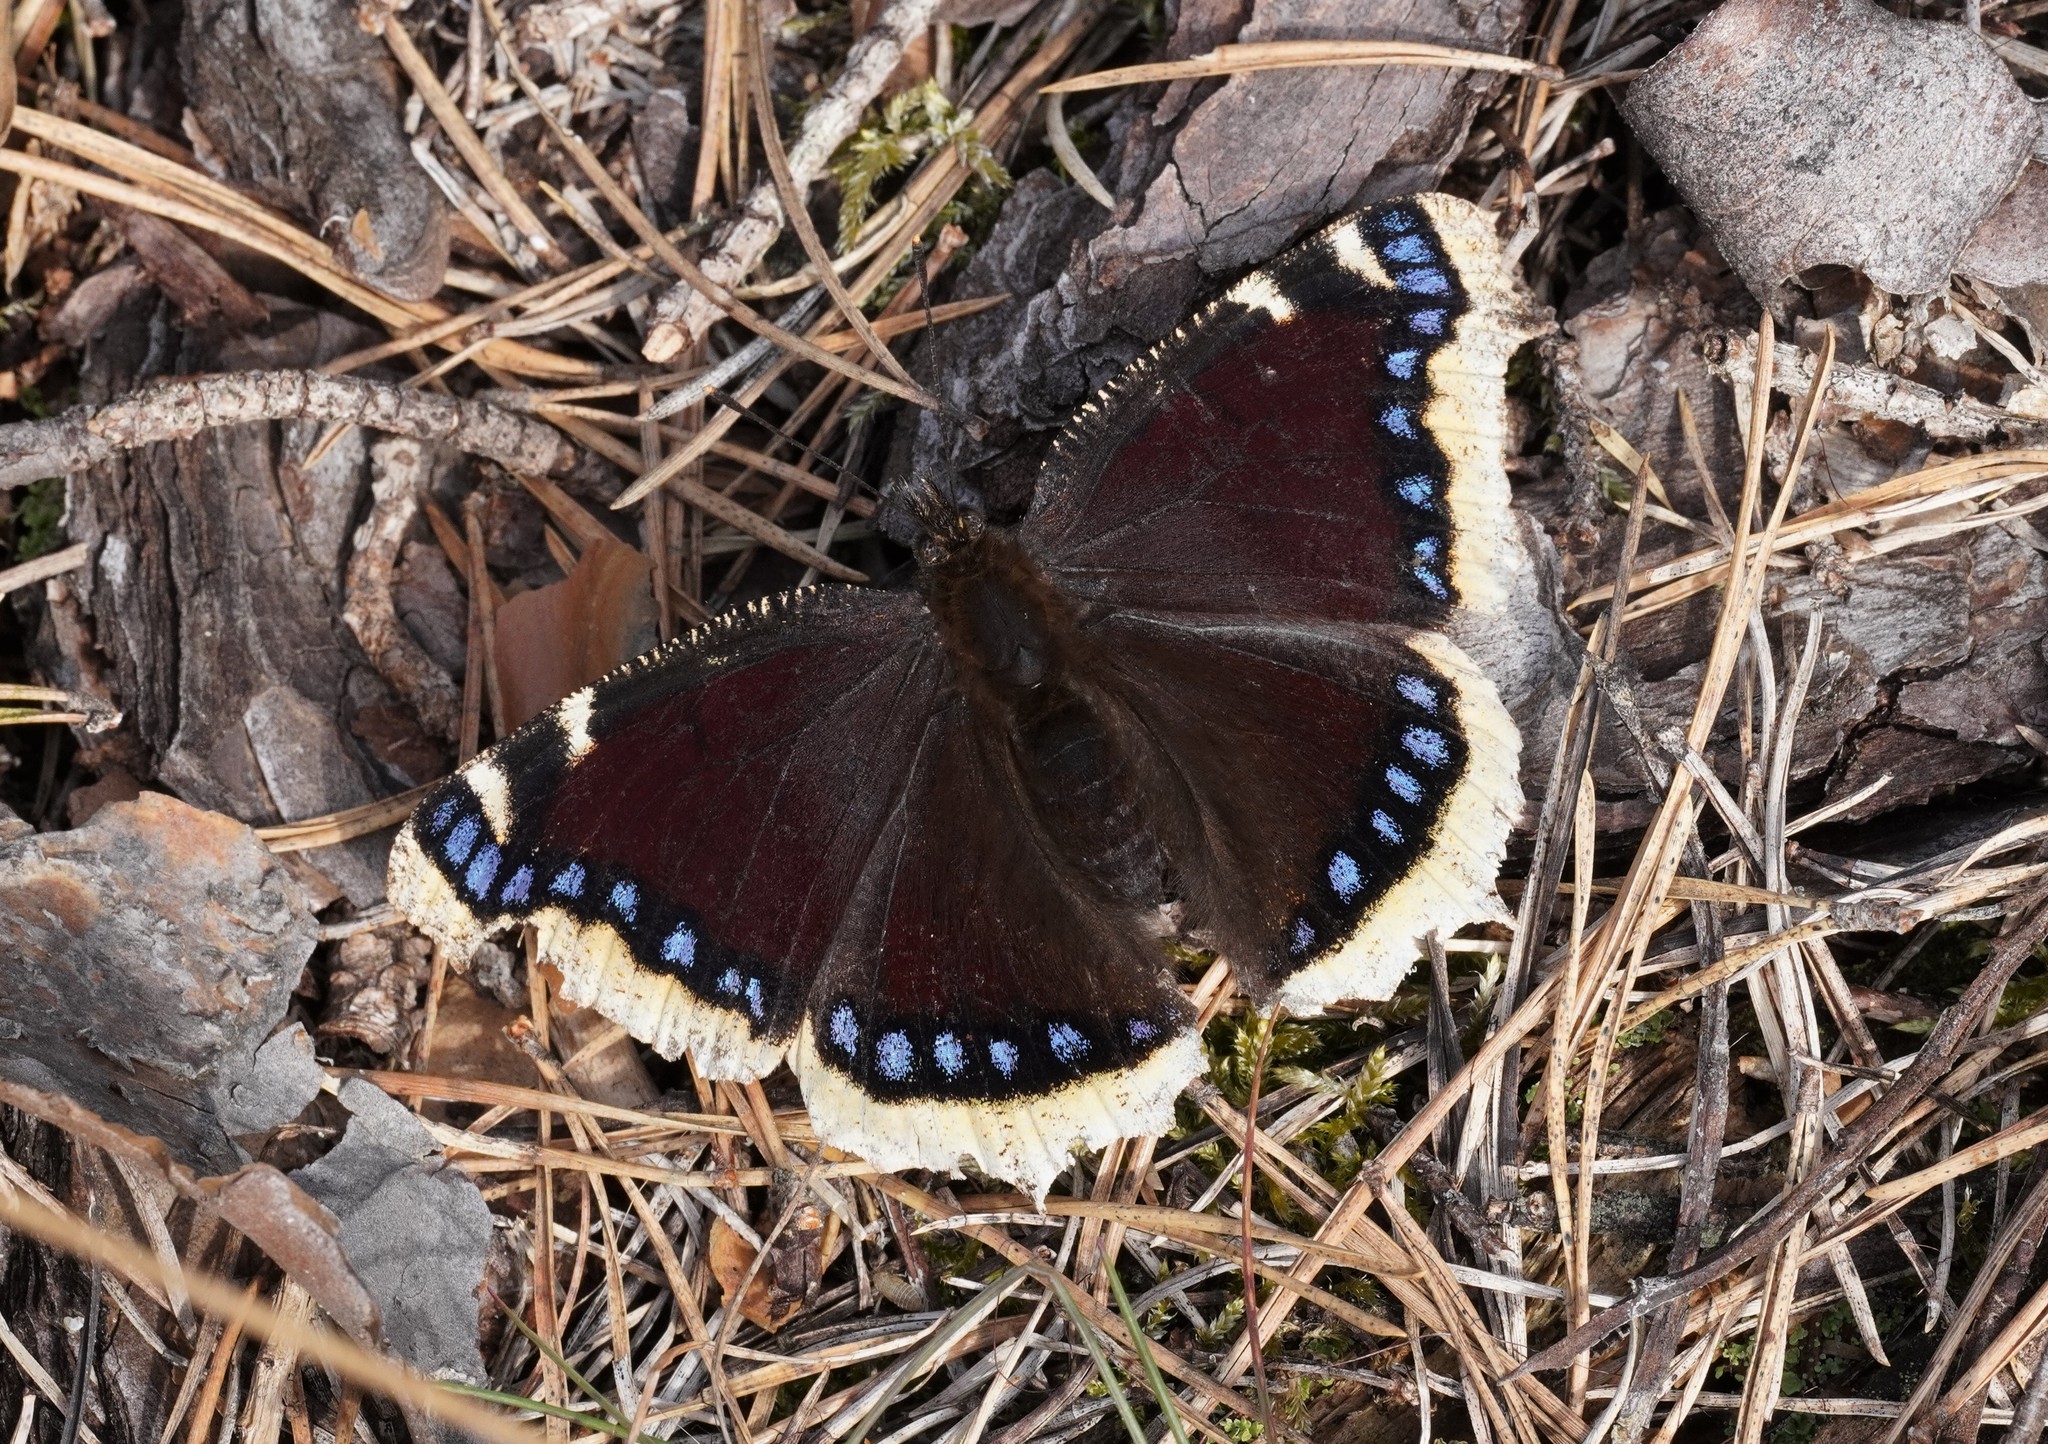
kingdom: Animalia
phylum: Arthropoda
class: Insecta
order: Lepidoptera
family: Nymphalidae
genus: Nymphalis
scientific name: Nymphalis antiopa
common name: Camberwell beauty
